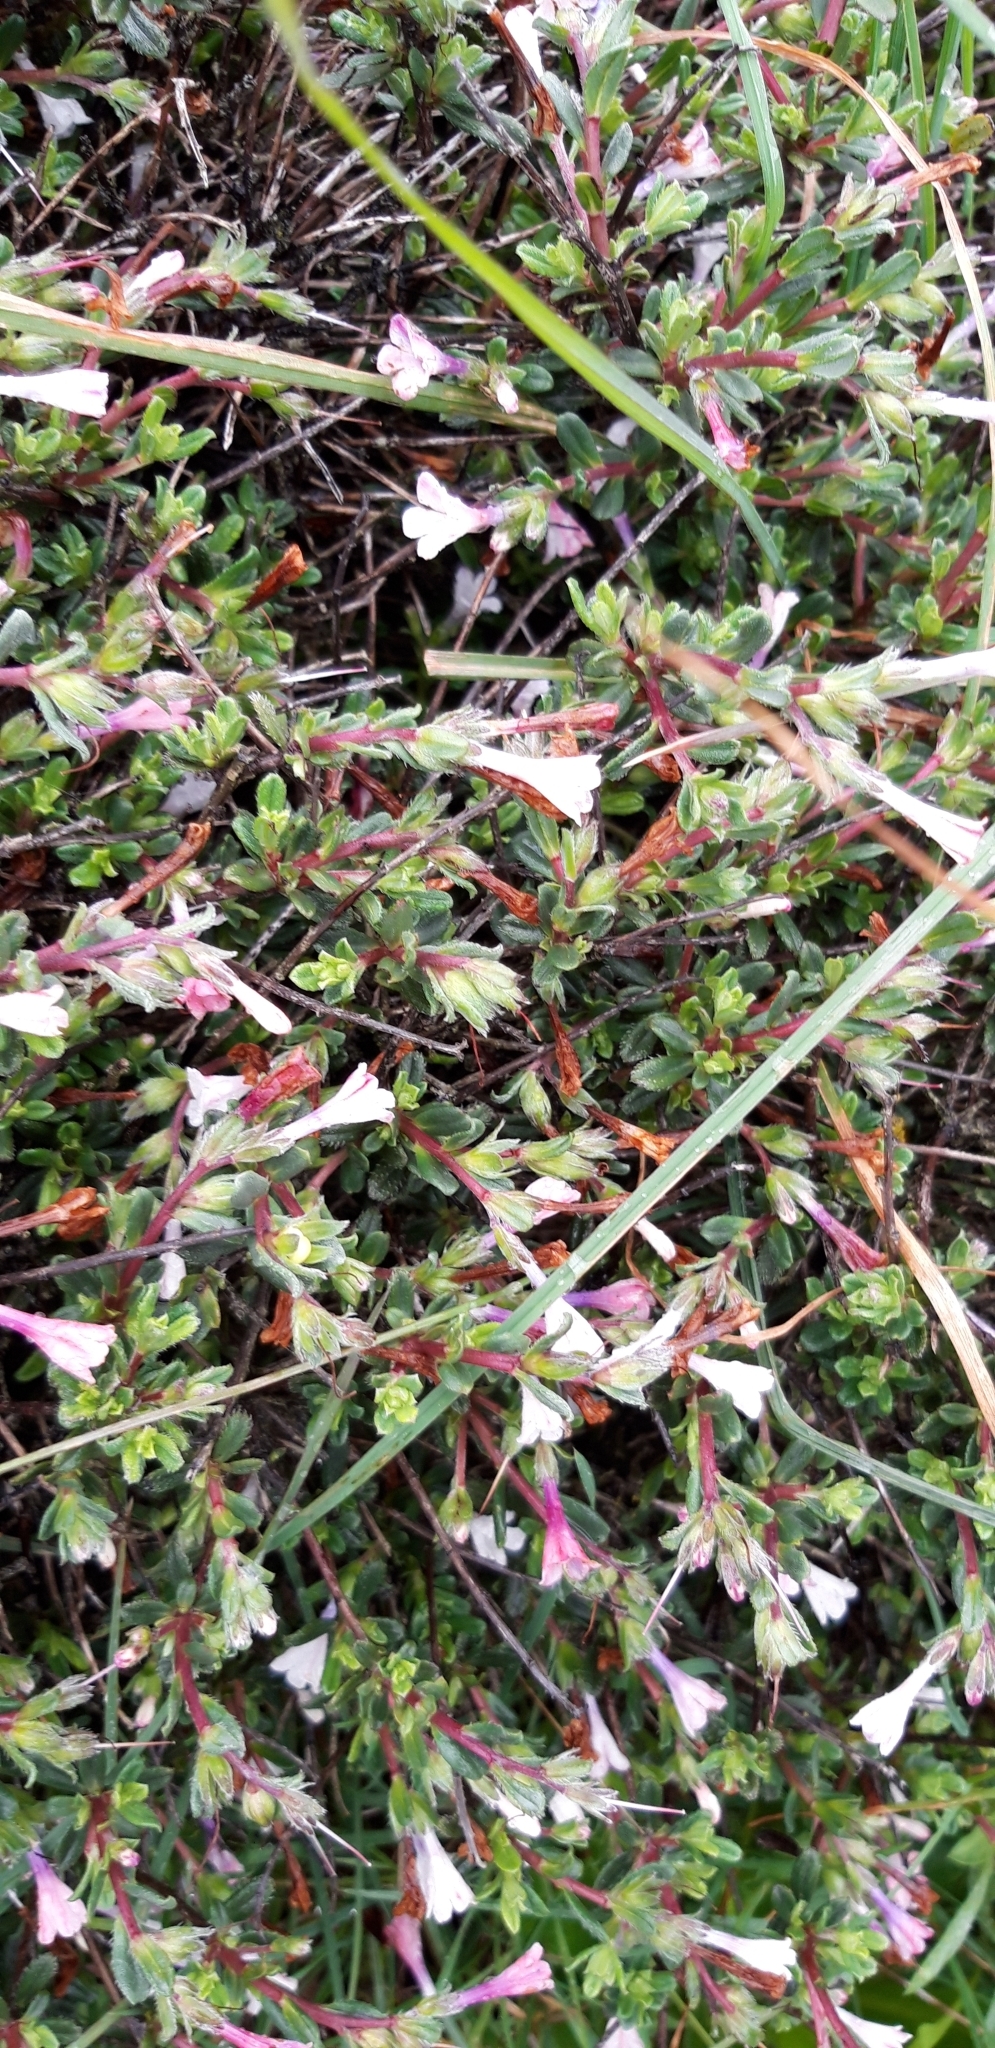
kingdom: Plantae
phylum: Tracheophyta
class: Magnoliopsida
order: Boraginales
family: Boraginaceae
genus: Lithodora
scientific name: Lithodora hispidula
